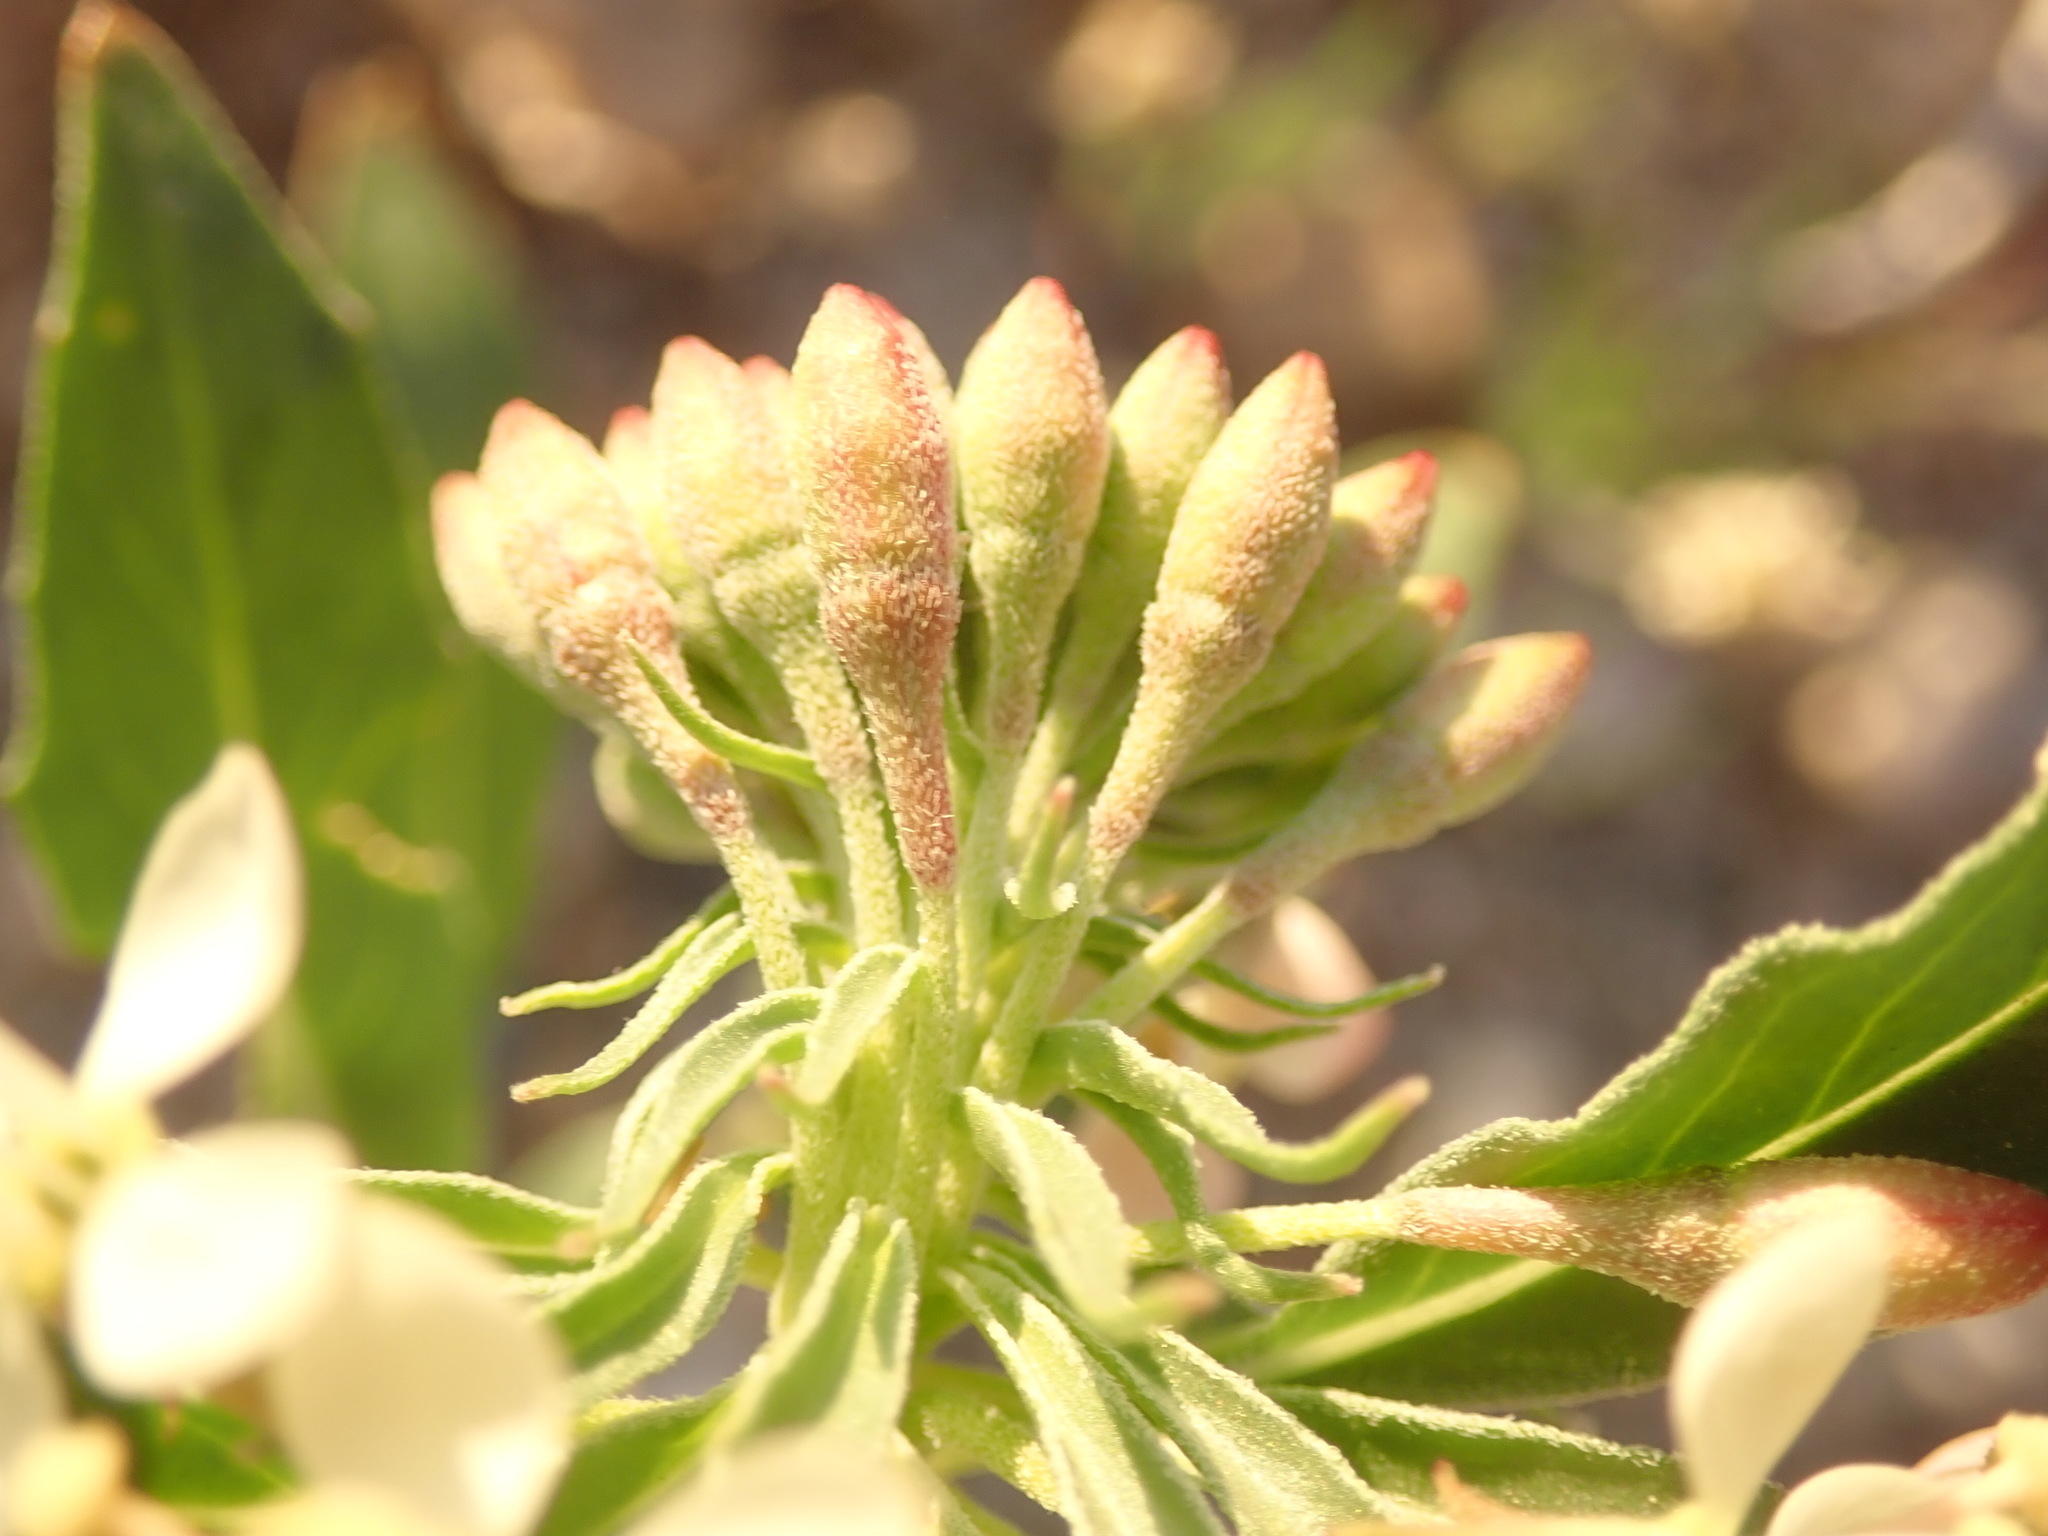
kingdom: Plantae
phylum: Tracheophyta
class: Magnoliopsida
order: Myrtales
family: Onagraceae
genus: Eremothera
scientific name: Eremothera boothii
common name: Booth's evening primrose
